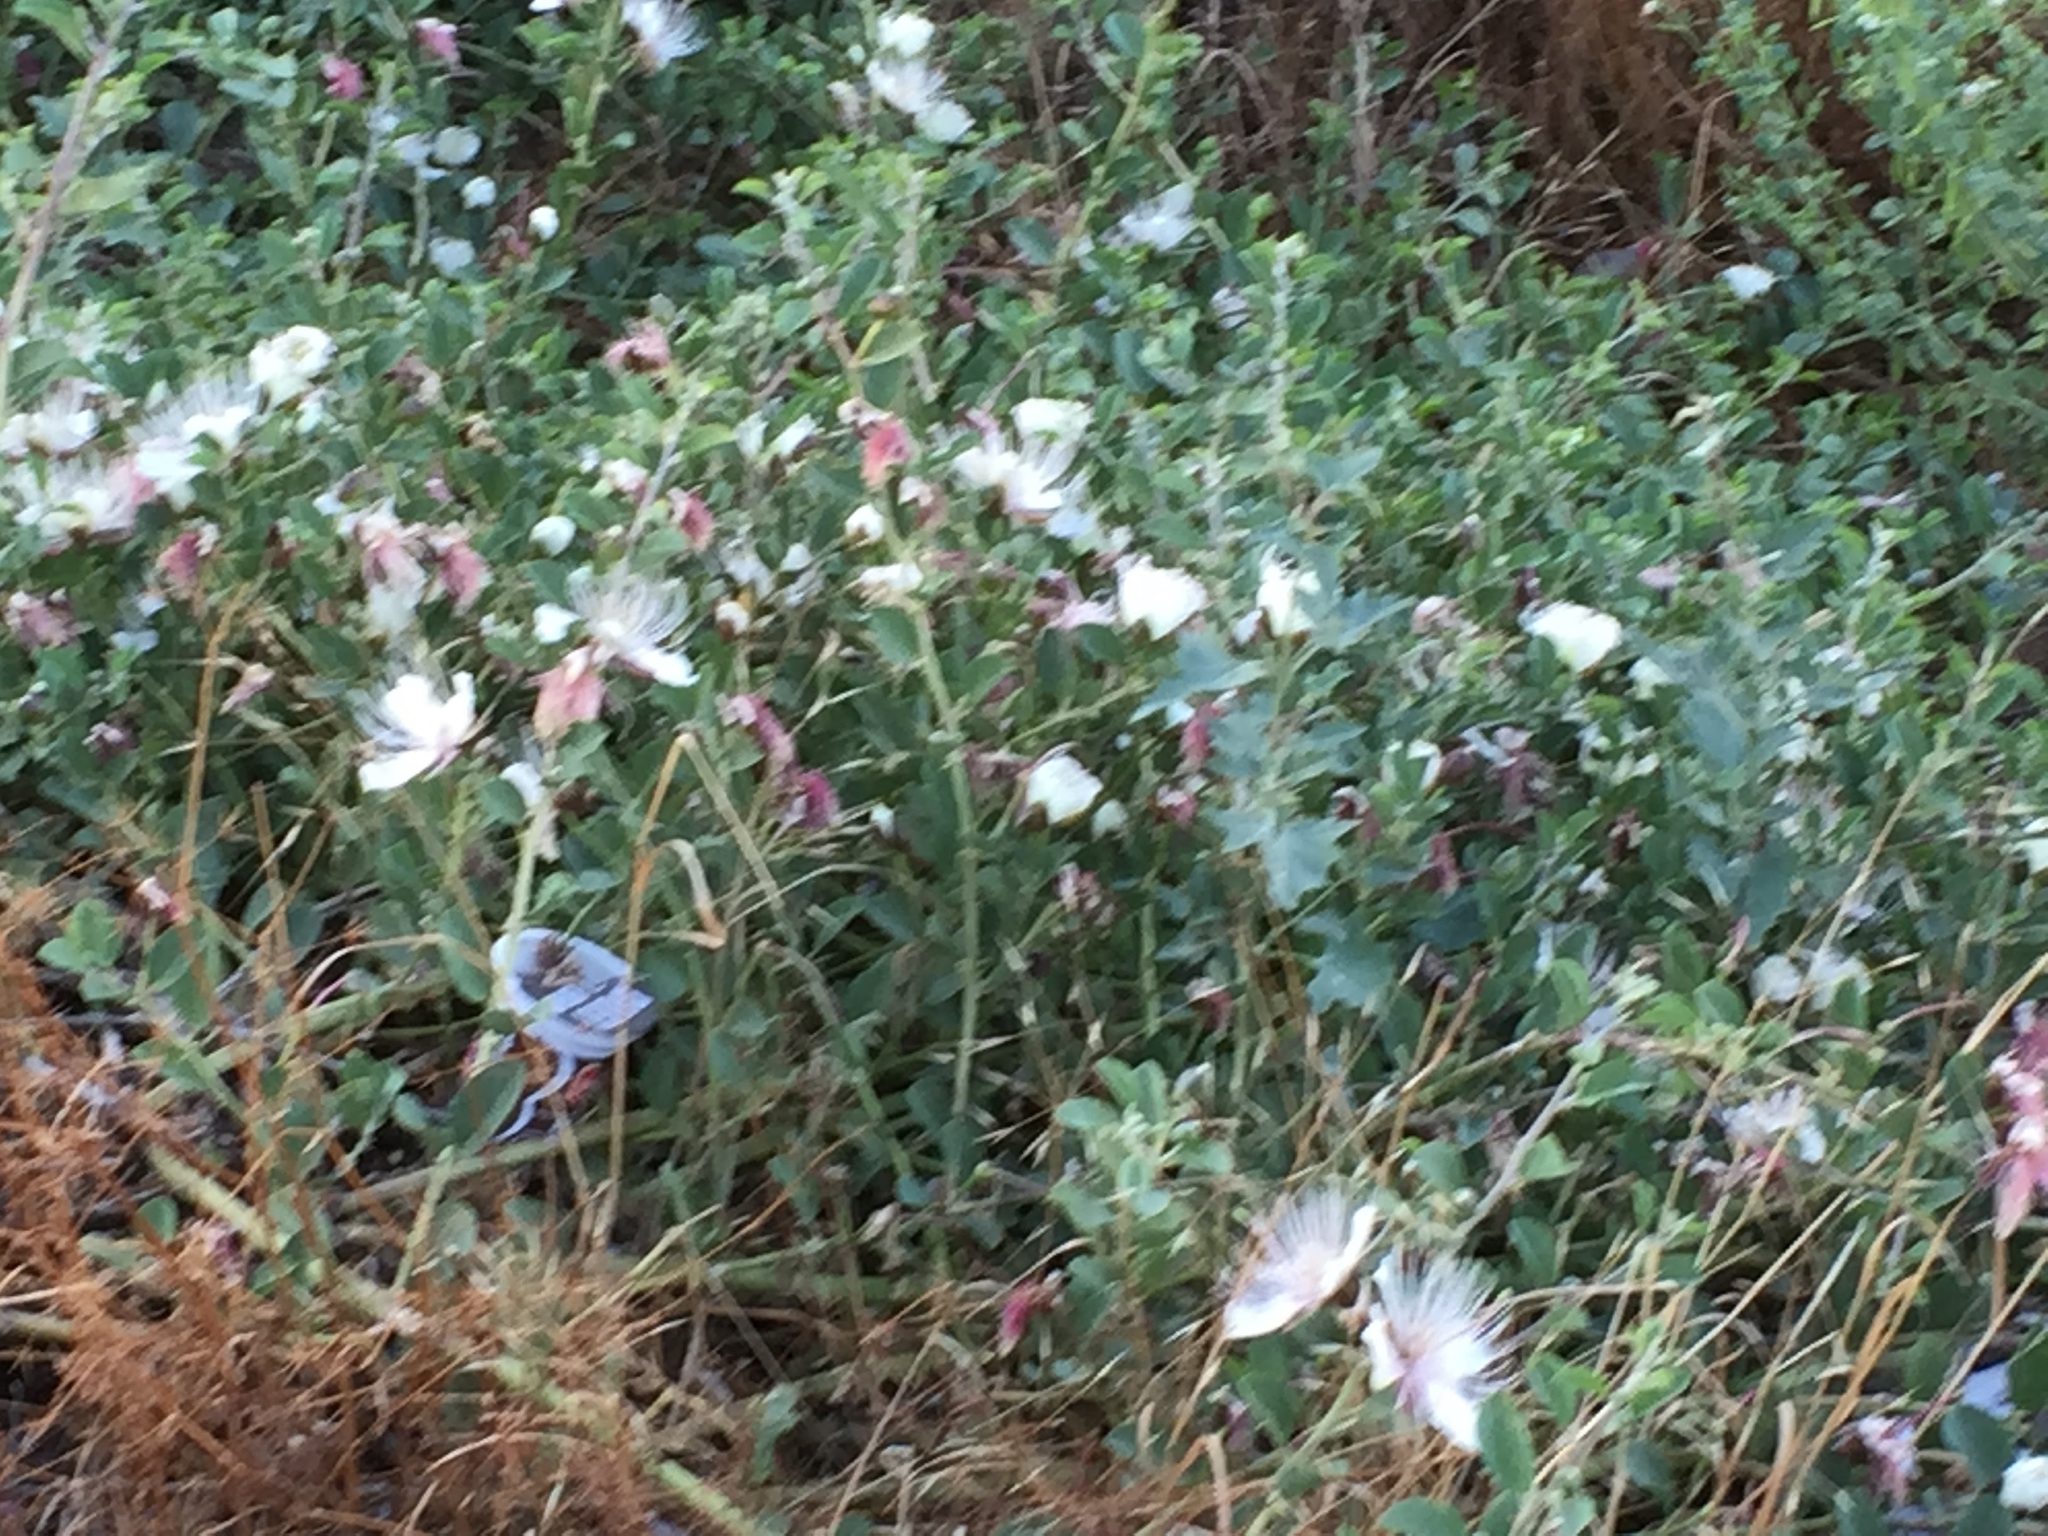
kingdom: Plantae
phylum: Tracheophyta
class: Magnoliopsida
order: Brassicales
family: Capparaceae
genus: Capparis
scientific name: Capparis spinosa
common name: Caper
